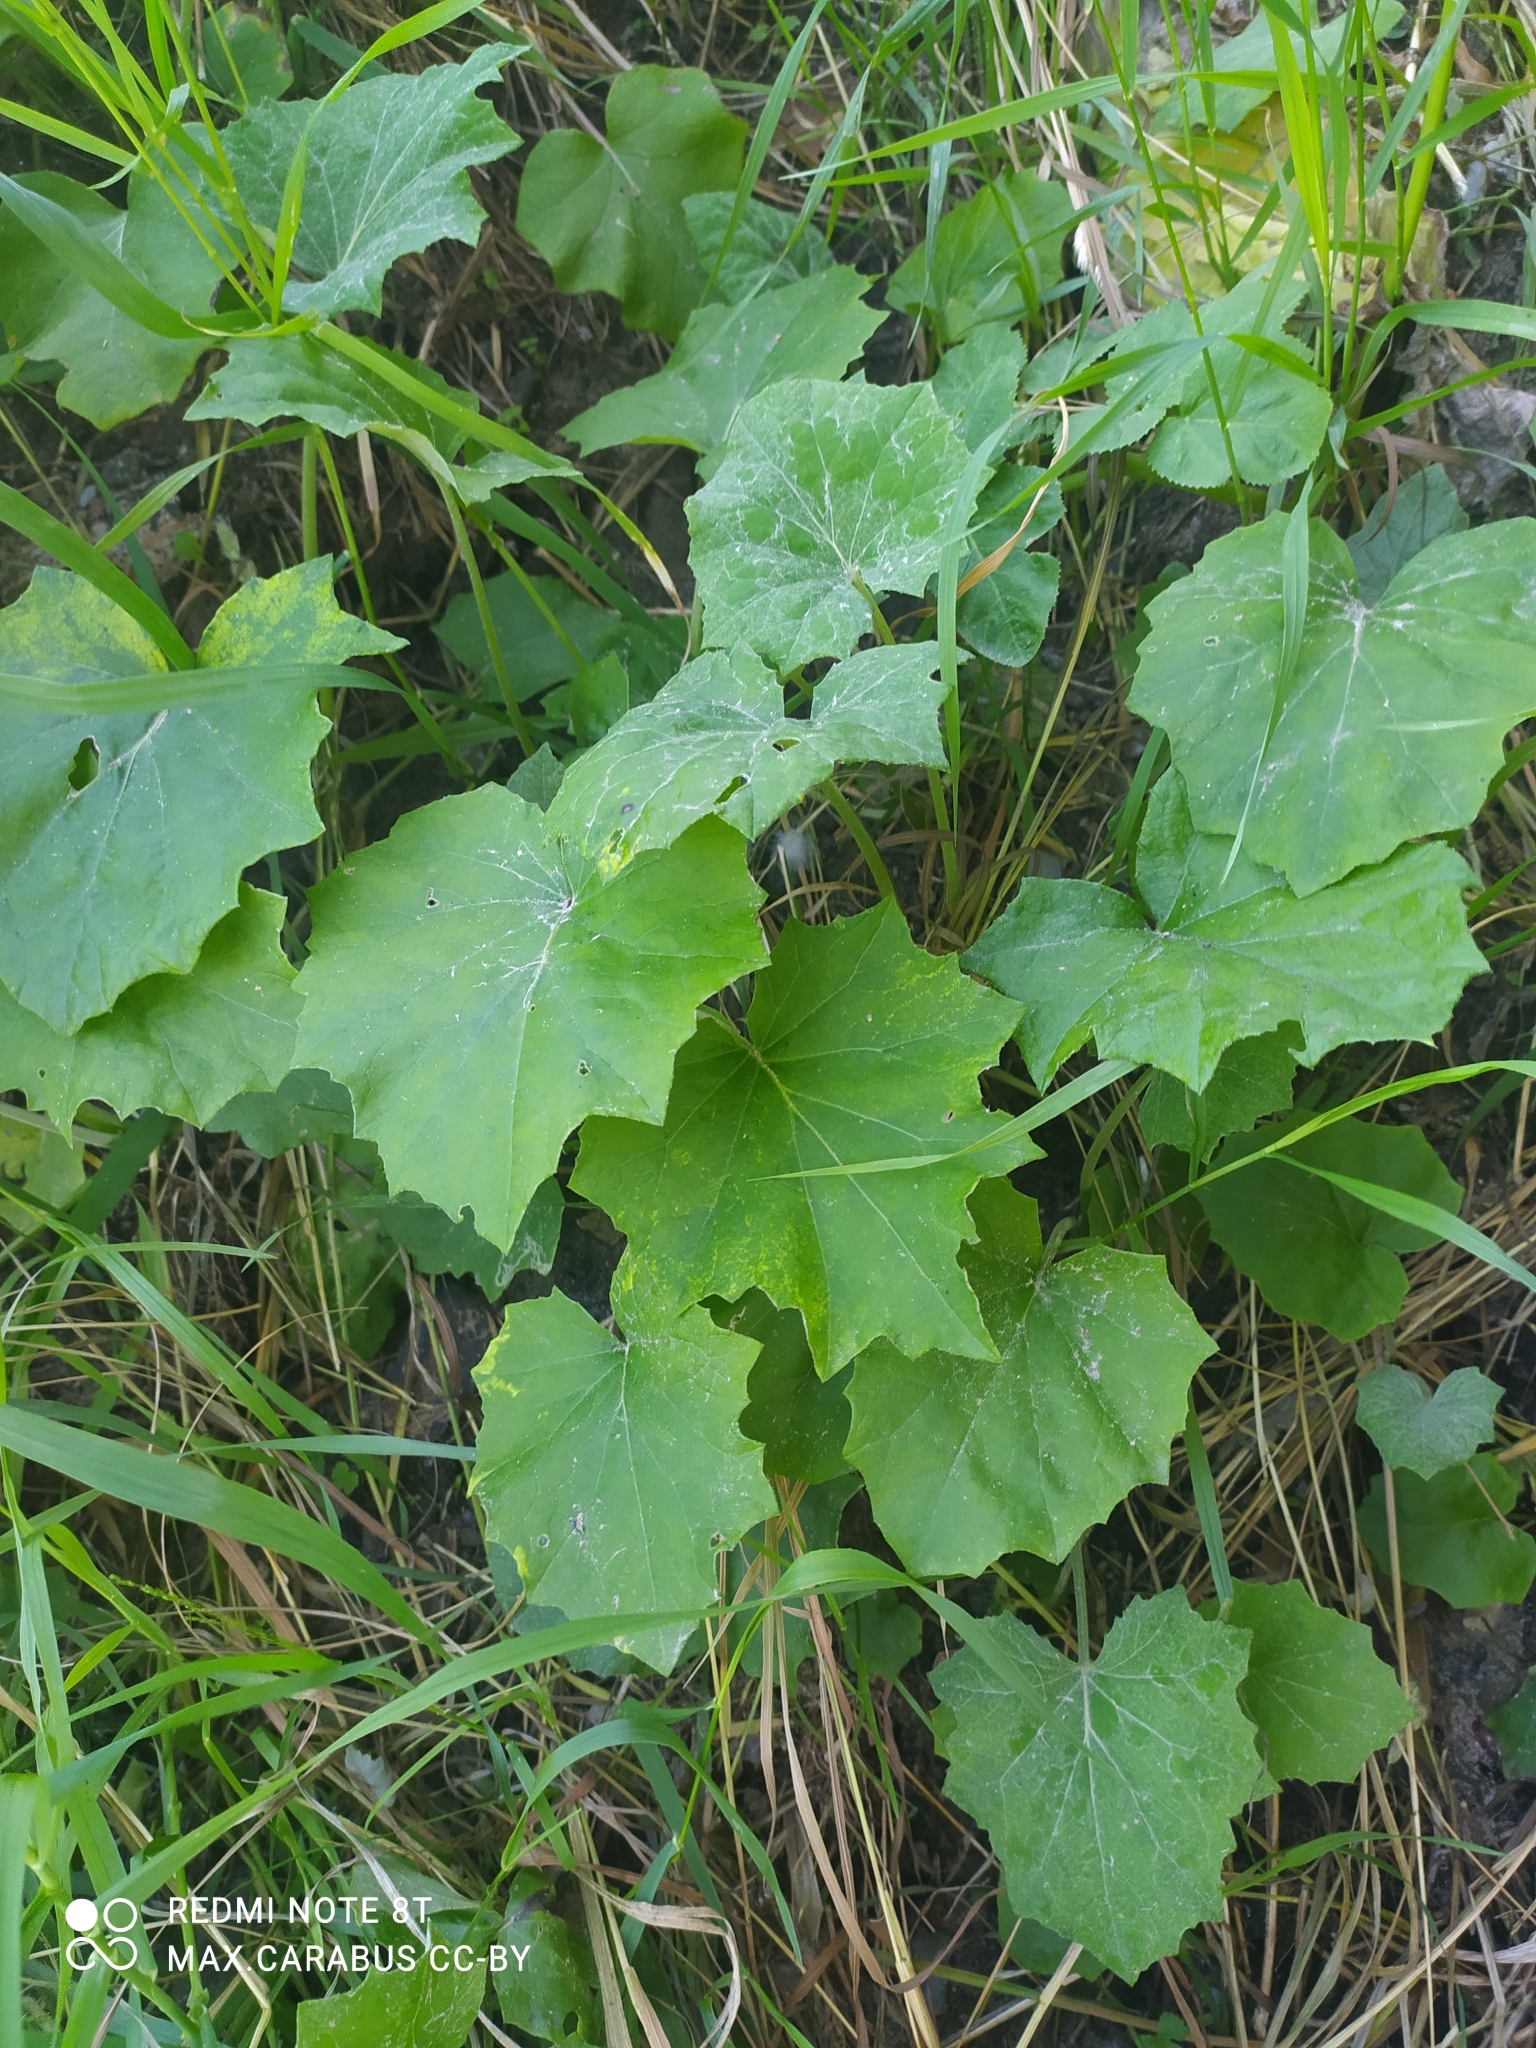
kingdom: Plantae
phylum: Tracheophyta
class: Magnoliopsida
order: Asterales
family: Asteraceae
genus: Tussilago
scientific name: Tussilago farfara
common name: Coltsfoot
